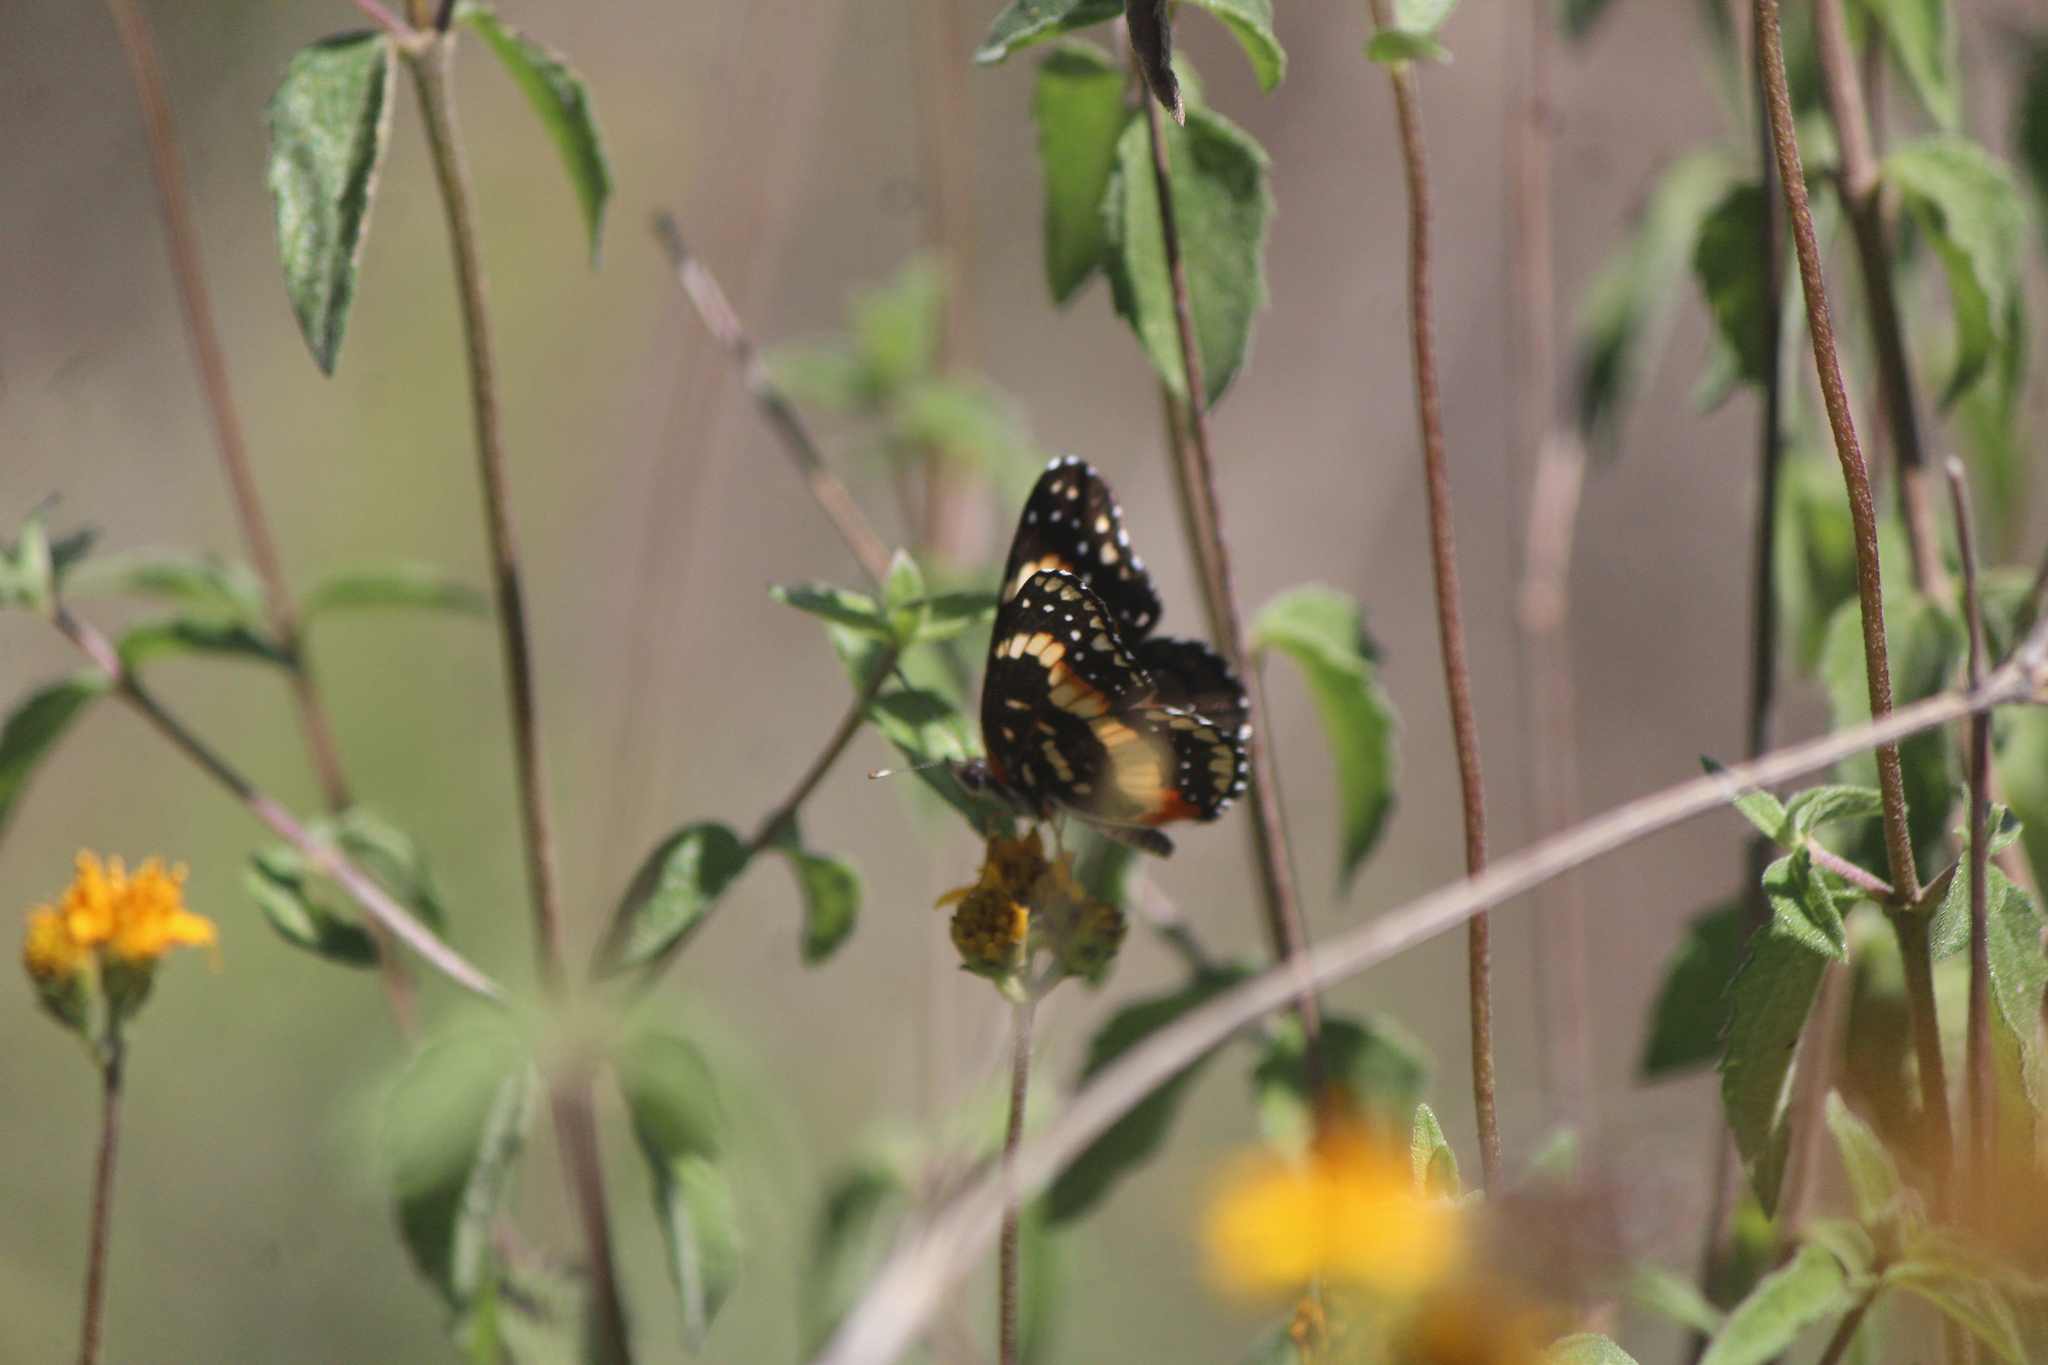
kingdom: Animalia
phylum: Arthropoda
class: Insecta
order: Lepidoptera
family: Nymphalidae
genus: Chlosyne
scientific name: Chlosyne lacinia
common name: Bordered patch
